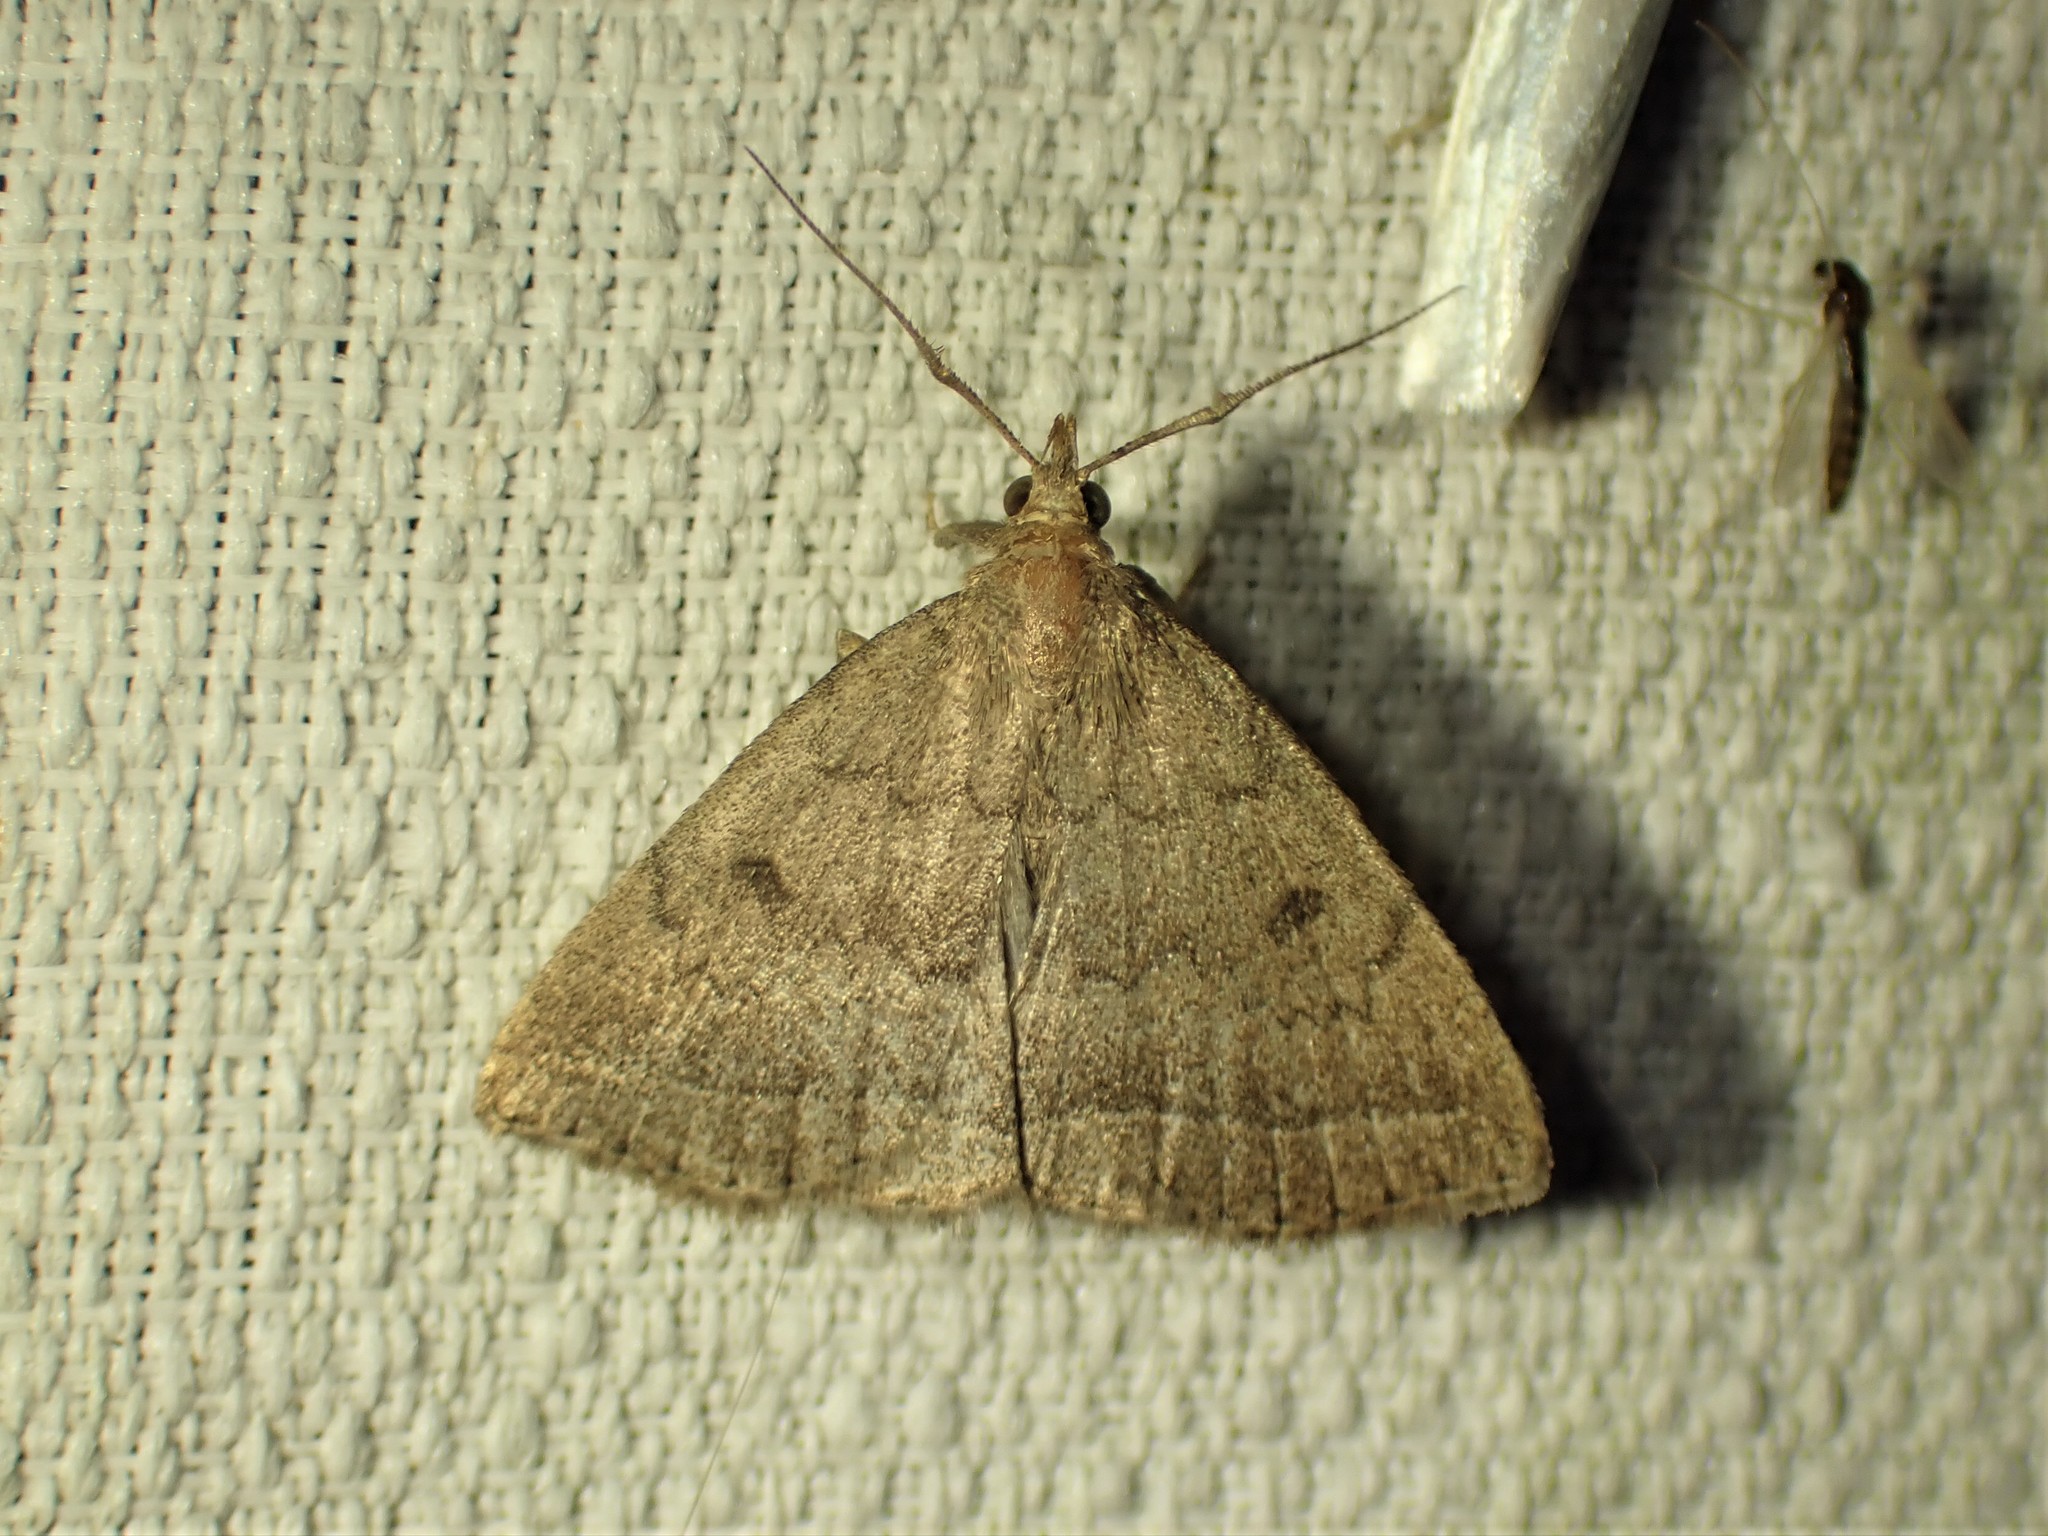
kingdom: Animalia
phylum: Arthropoda
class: Insecta
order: Lepidoptera
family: Erebidae
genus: Zanclognatha
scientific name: Zanclognatha jacchusalis
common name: Yellowish zanclognatha
